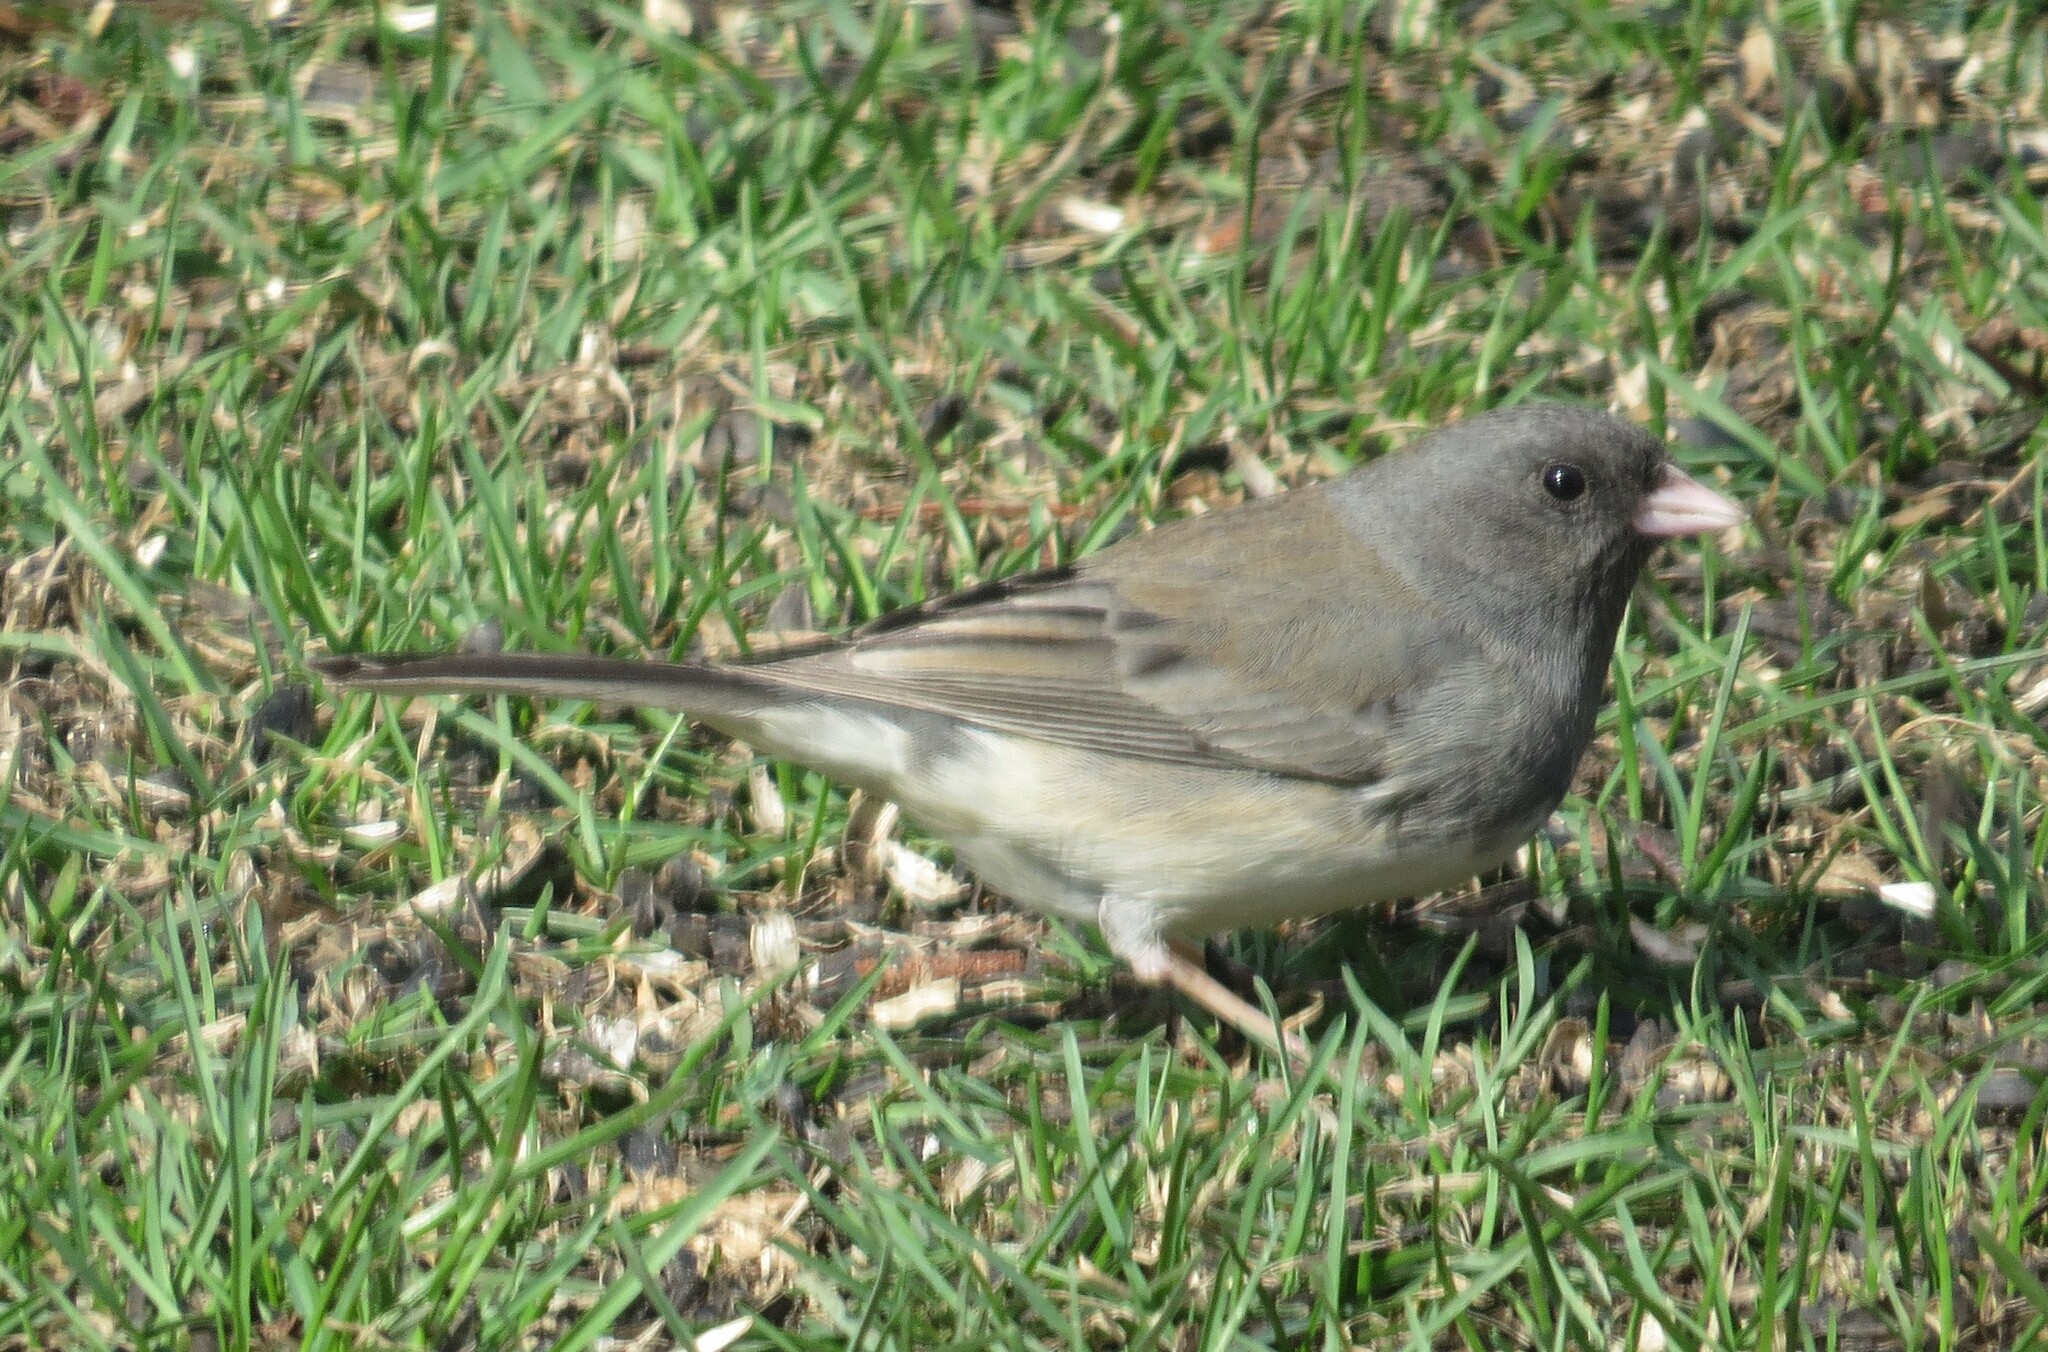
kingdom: Animalia
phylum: Chordata
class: Aves
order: Passeriformes
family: Passerellidae
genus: Junco
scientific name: Junco hyemalis
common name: Dark-eyed junco
